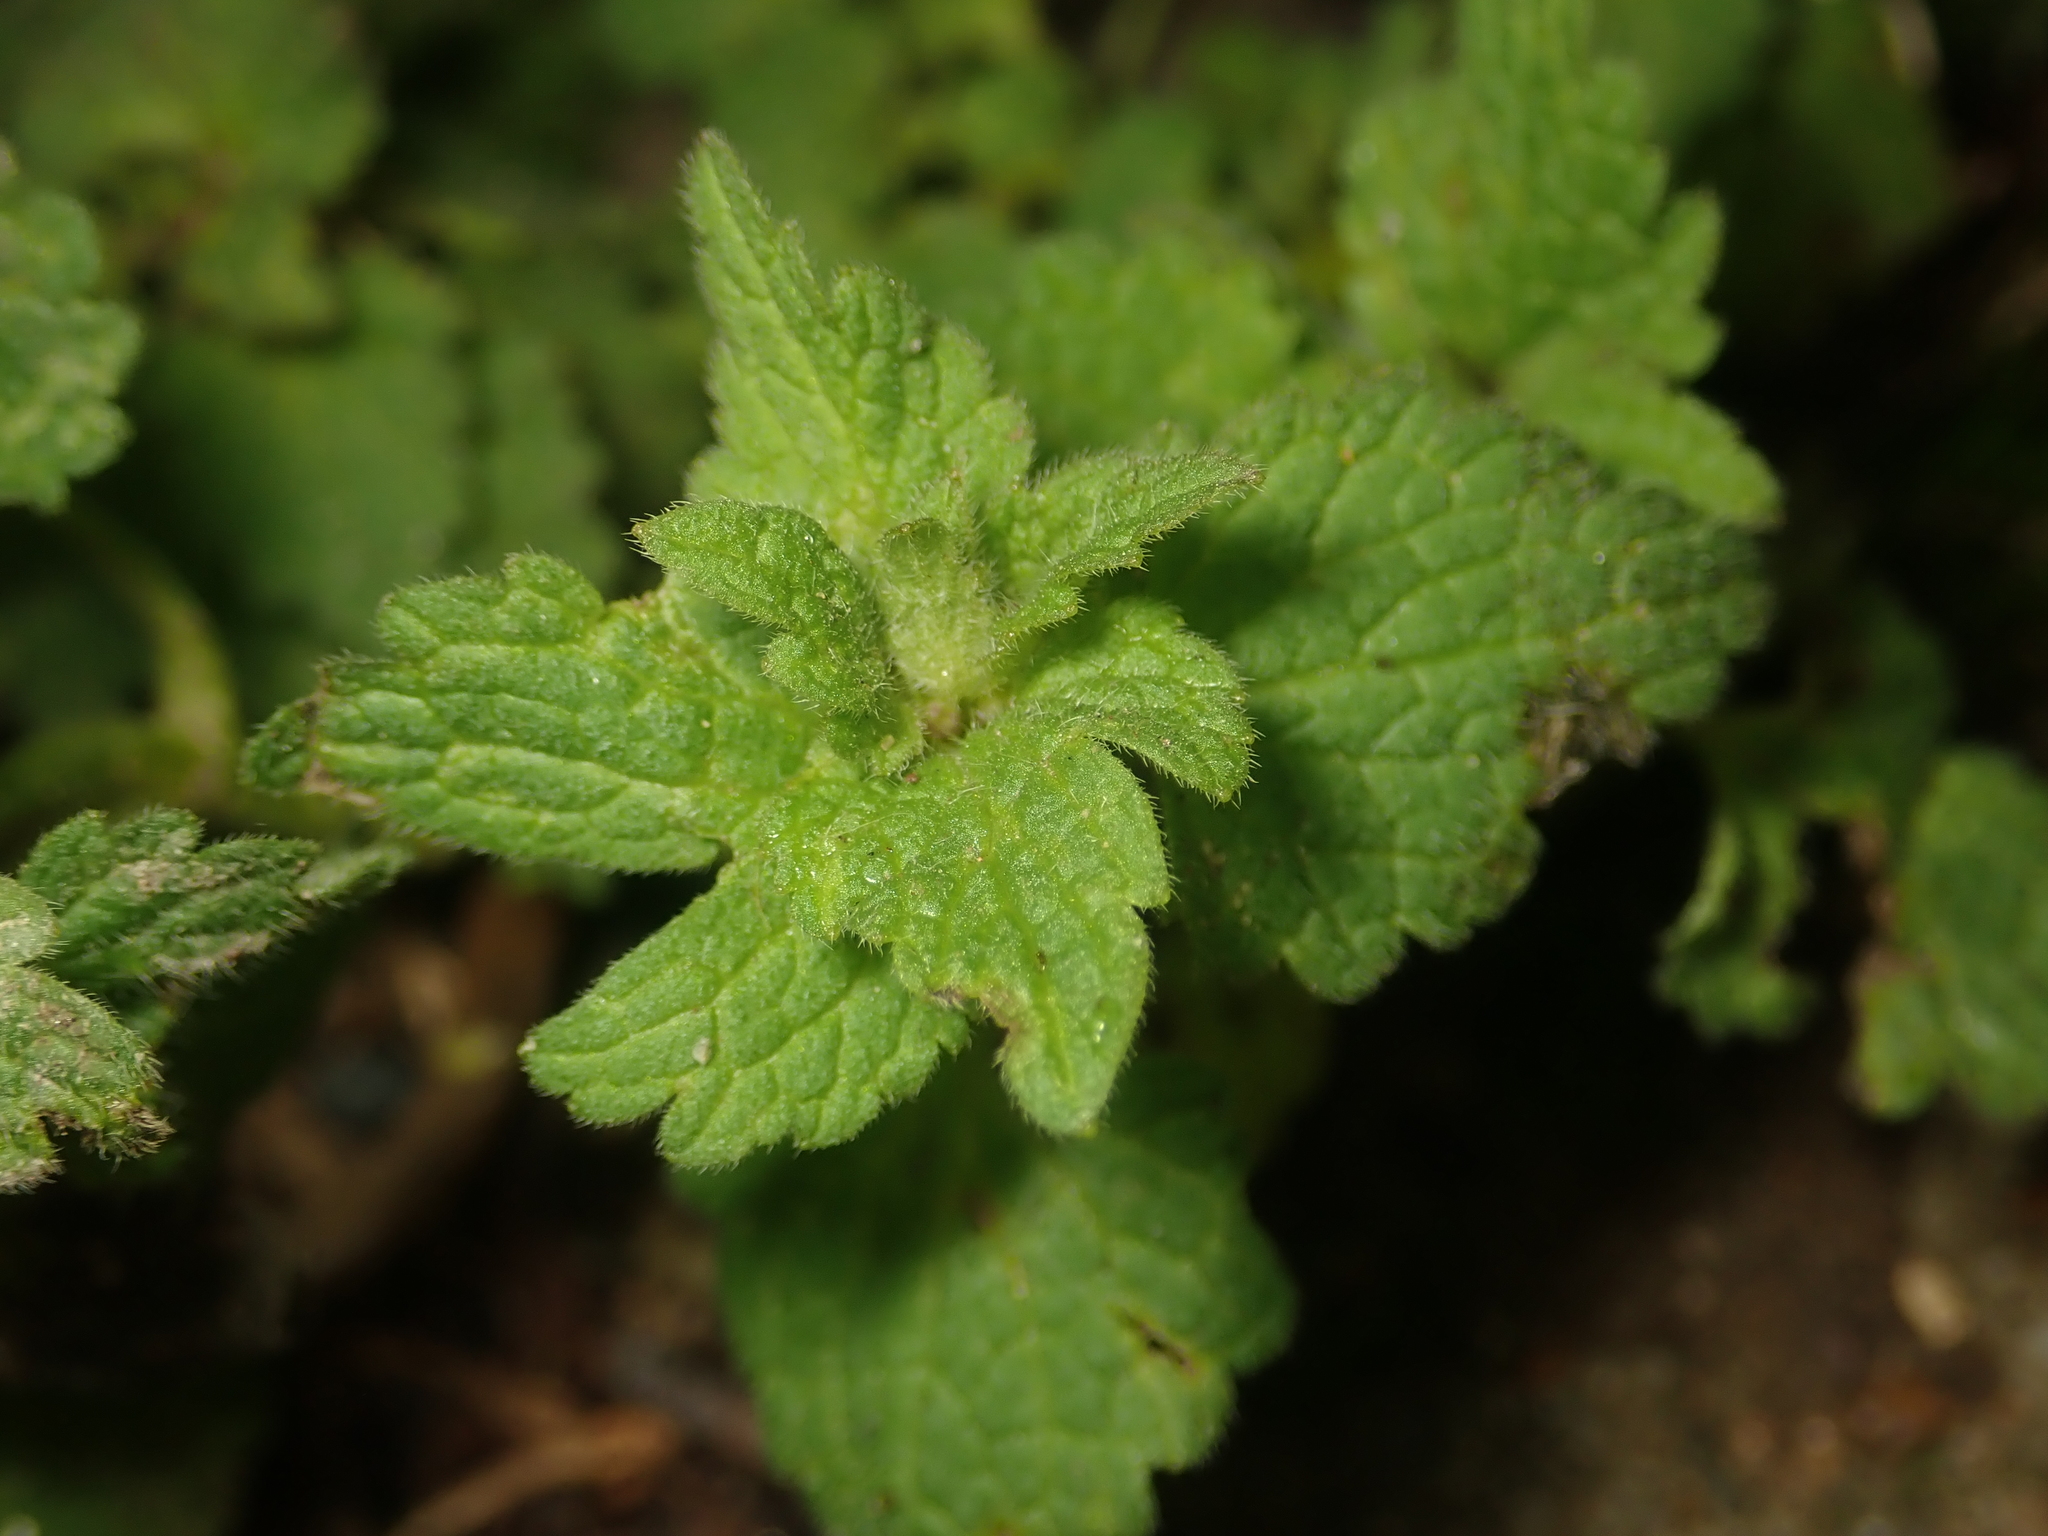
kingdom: Plantae
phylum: Tracheophyta
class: Magnoliopsida
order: Lamiales
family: Lamiaceae
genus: Ballota
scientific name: Ballota nigra
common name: Black horehound
